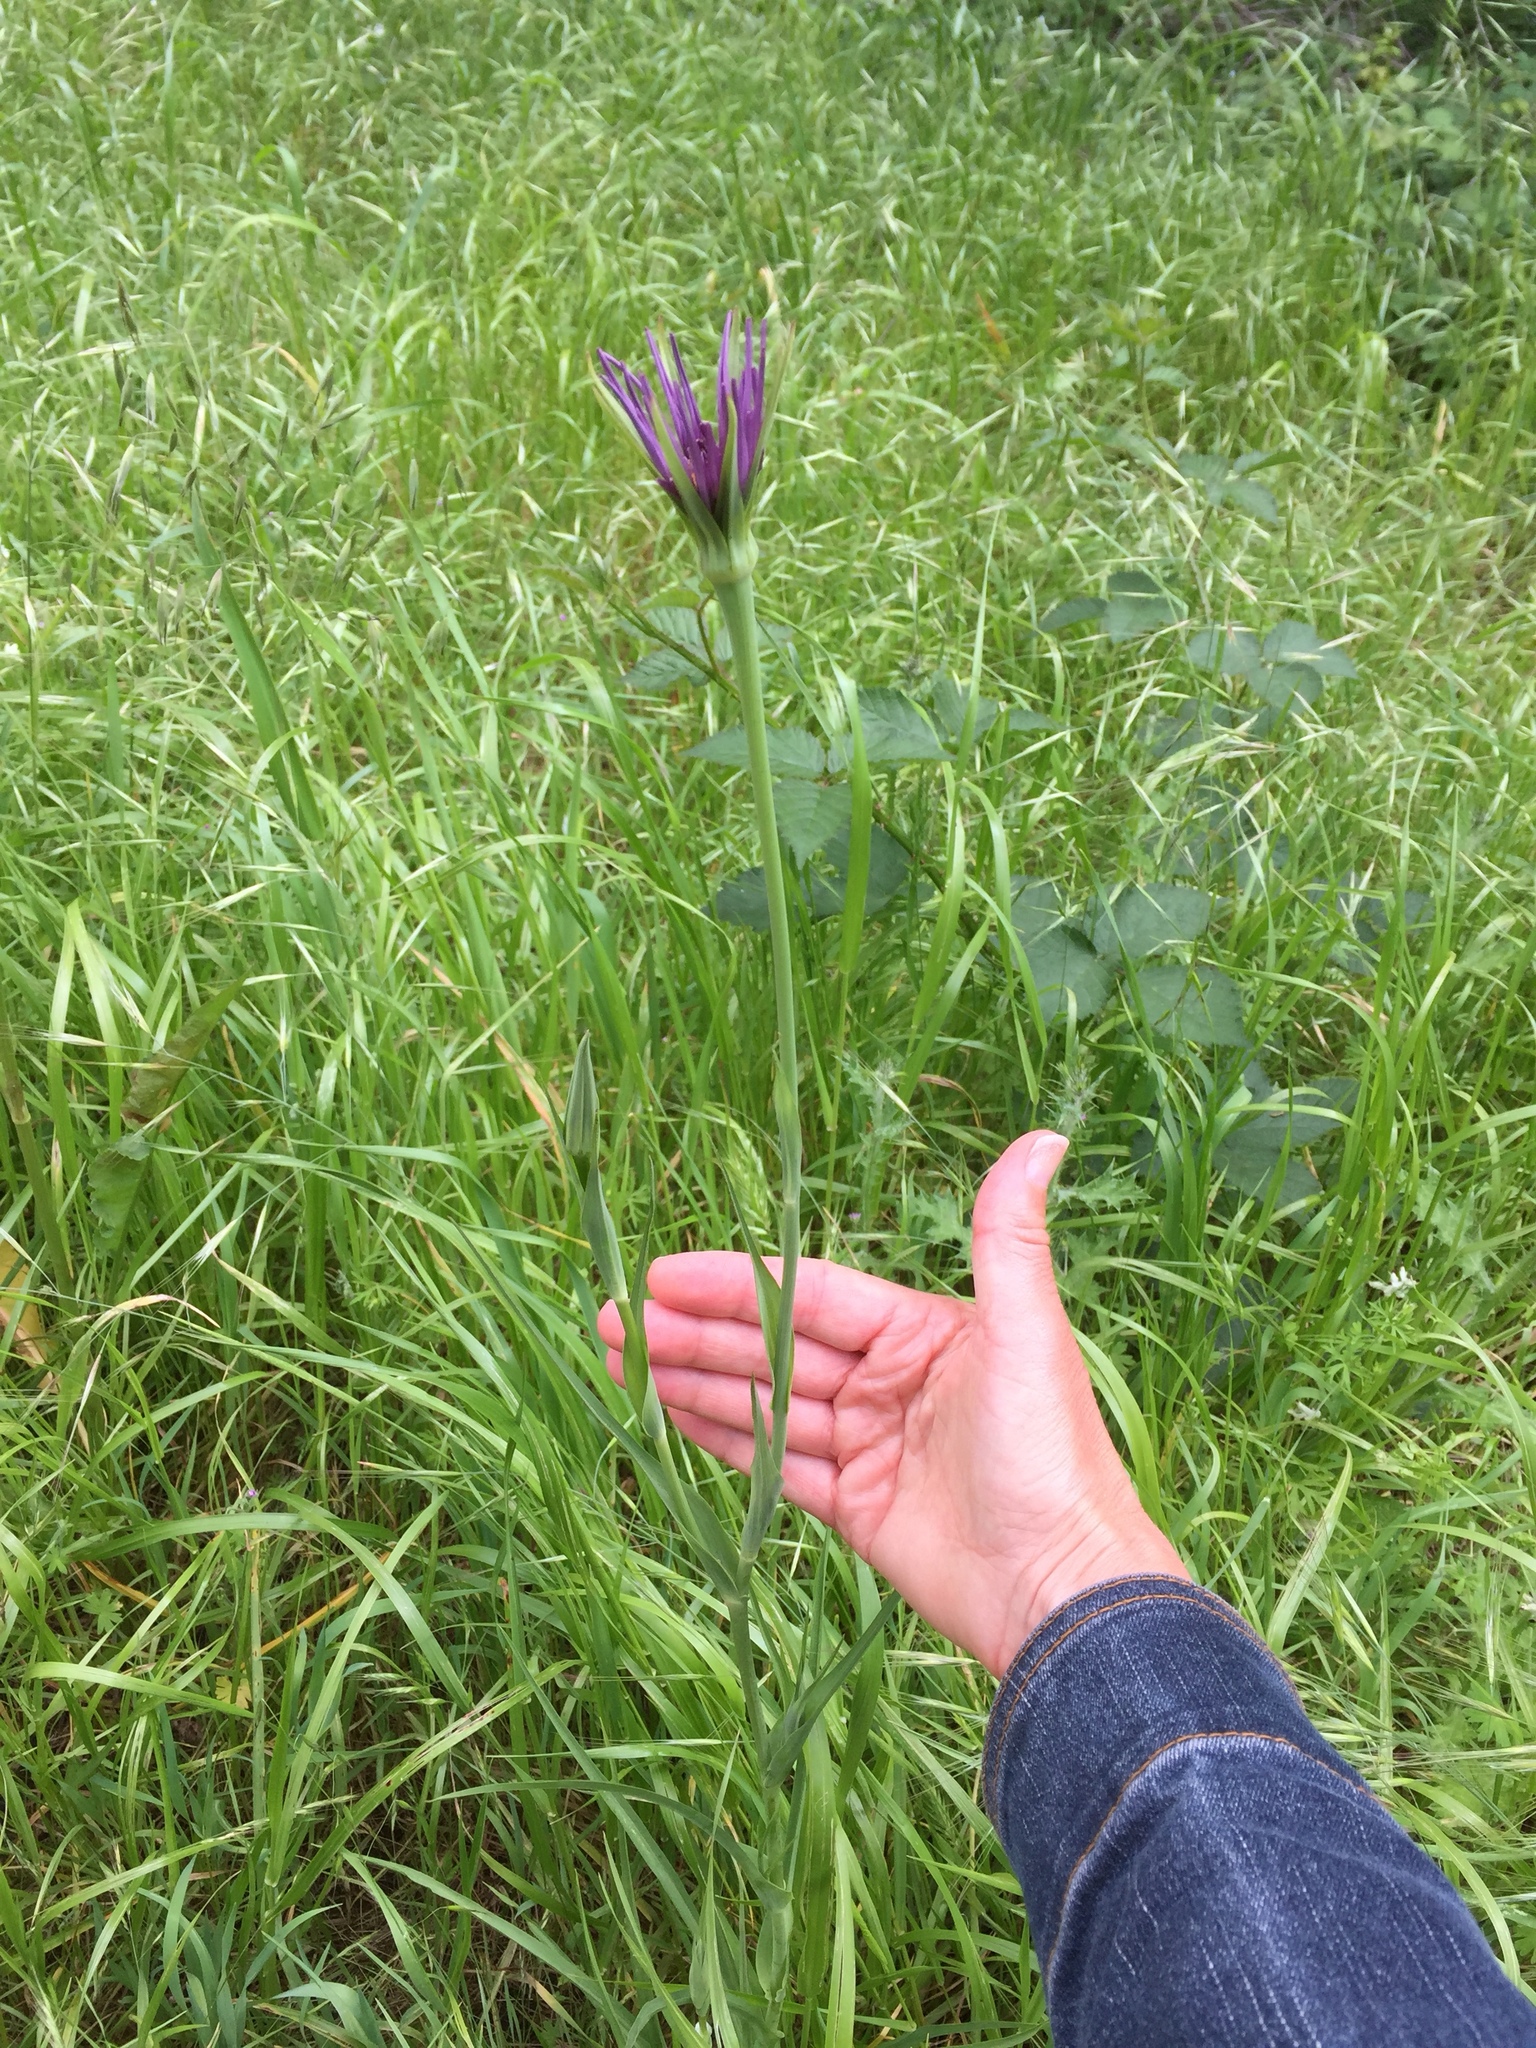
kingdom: Plantae
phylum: Tracheophyta
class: Magnoliopsida
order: Asterales
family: Asteraceae
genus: Tragopogon
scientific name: Tragopogon porrifolius
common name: Salsify
